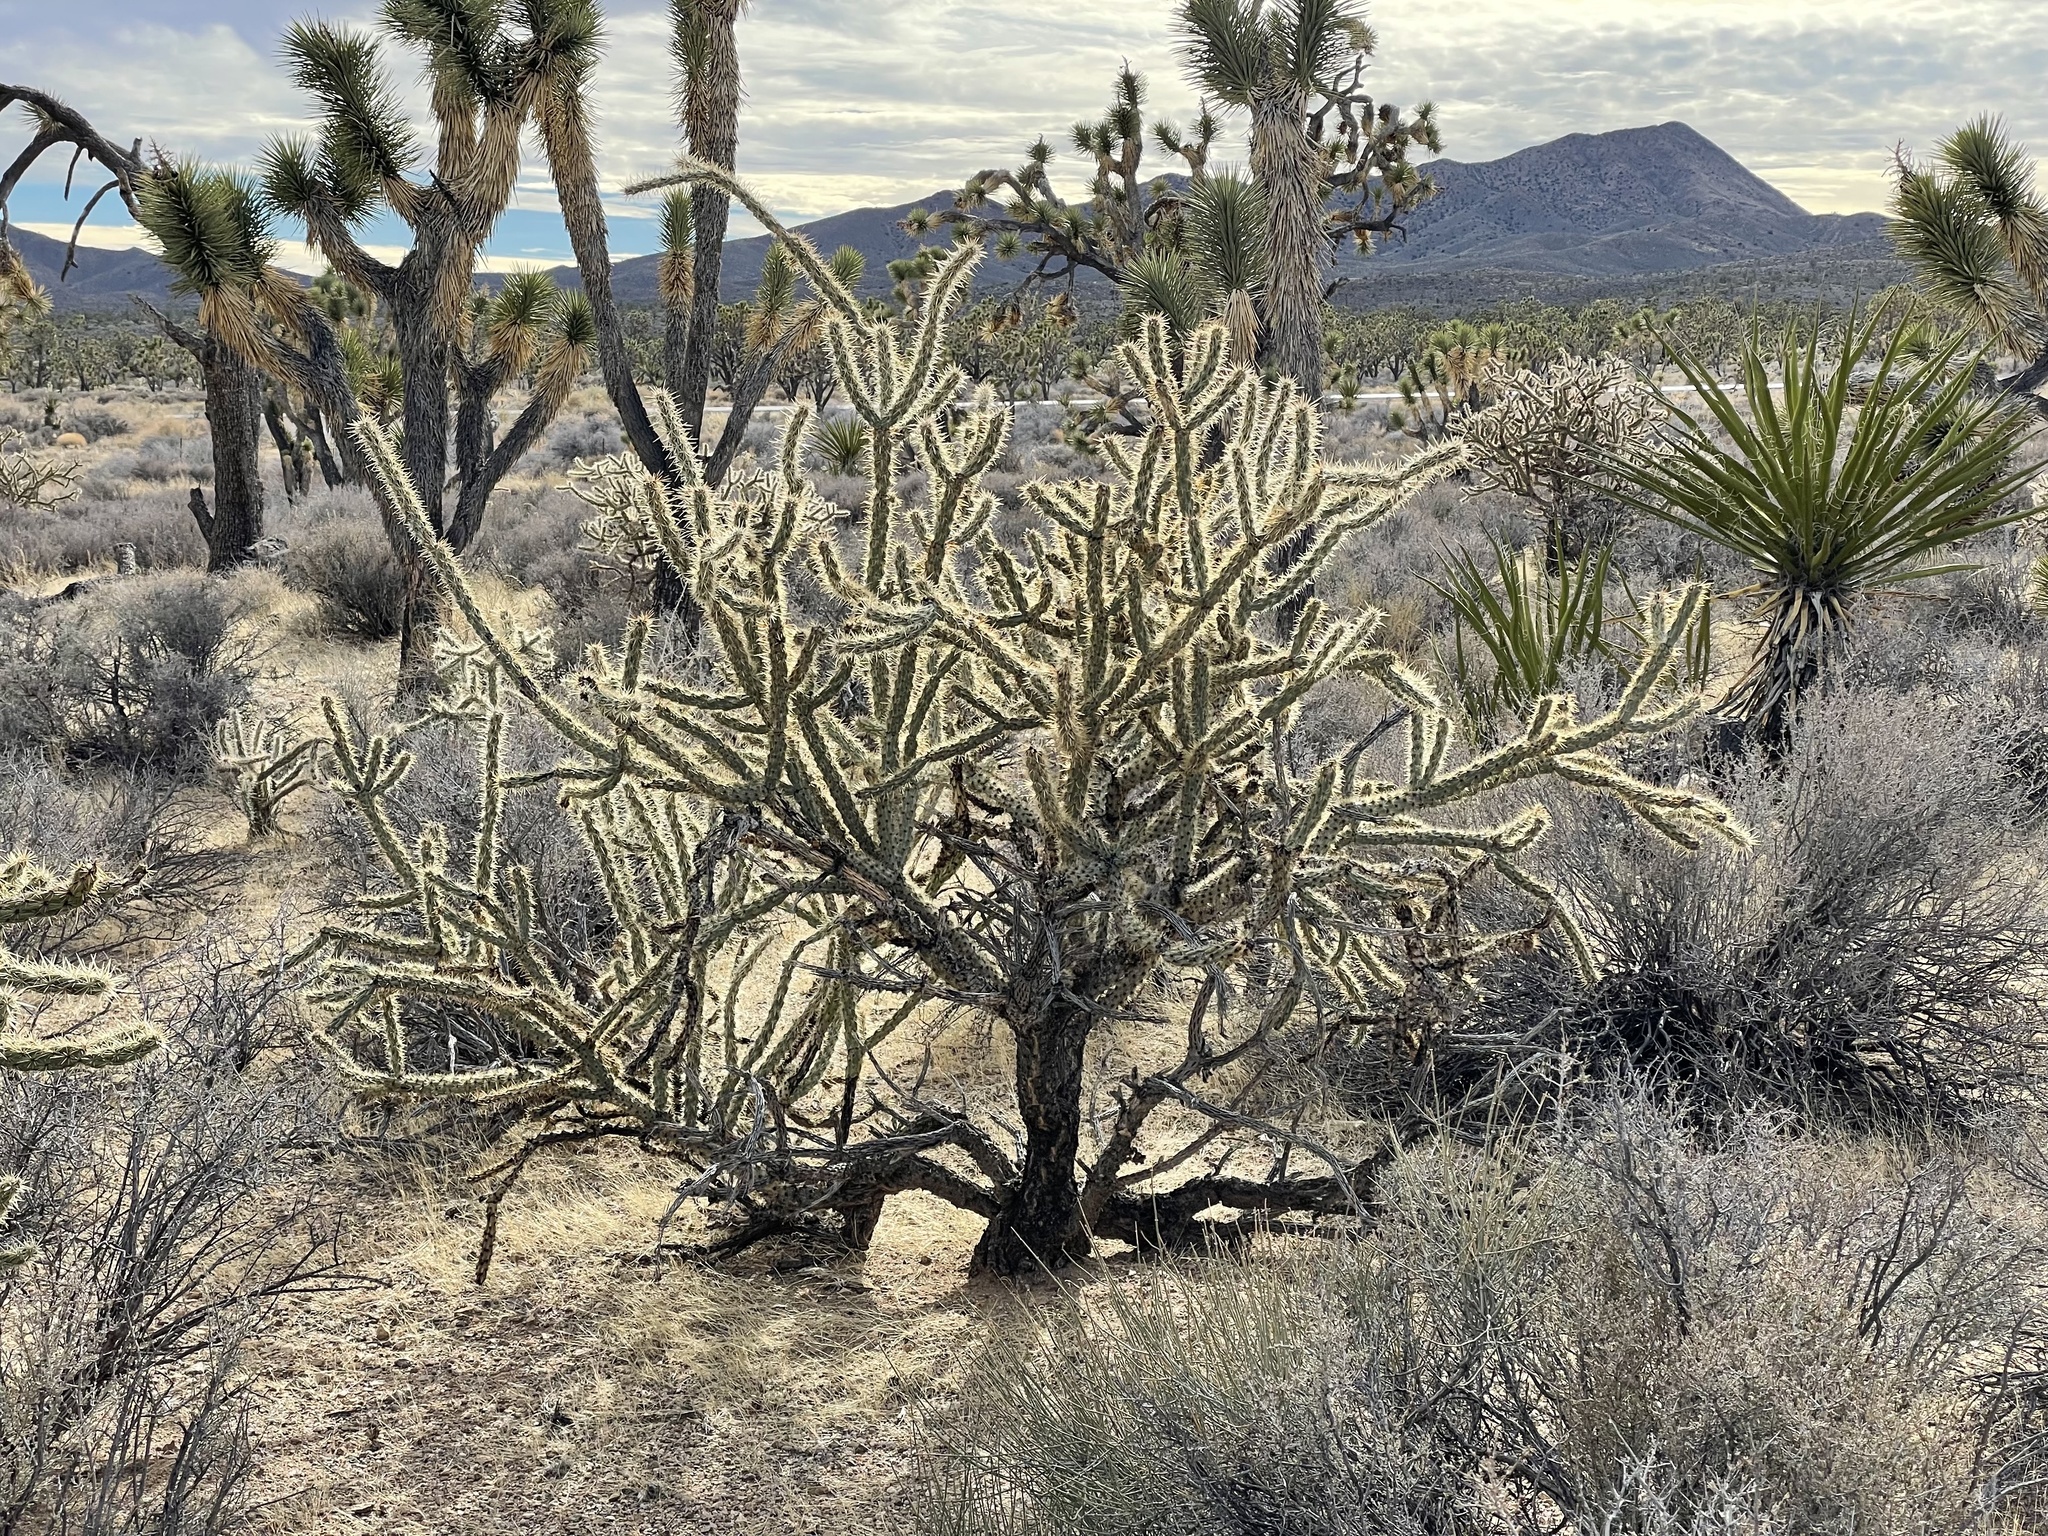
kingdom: Plantae
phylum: Tracheophyta
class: Magnoliopsida
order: Caryophyllales
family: Cactaceae
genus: Cylindropuntia
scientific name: Cylindropuntia acanthocarpa
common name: Buckhorn cholla
